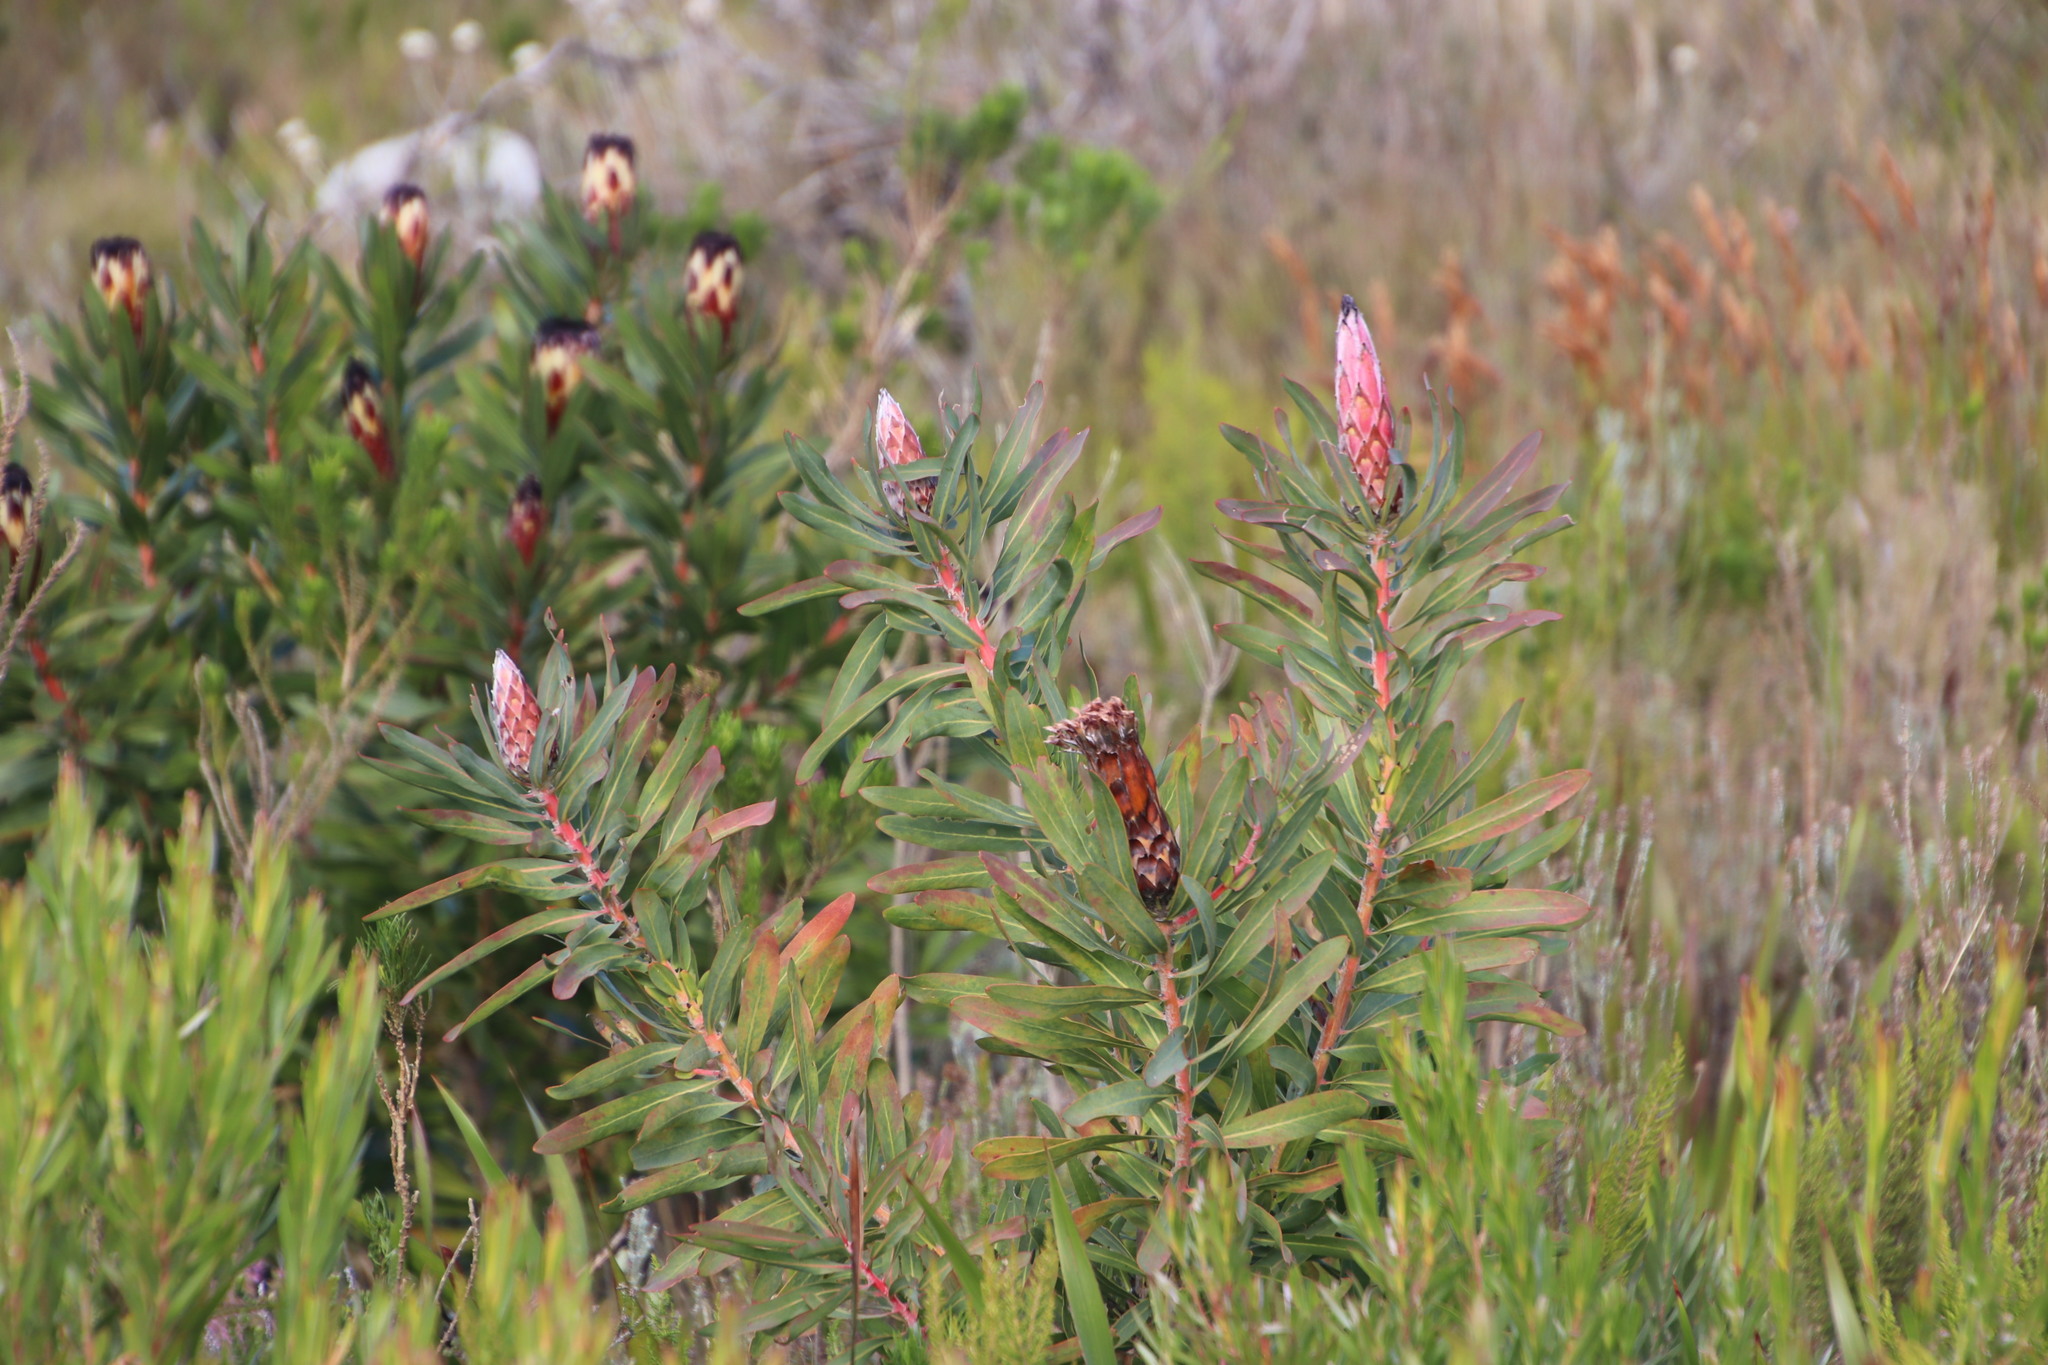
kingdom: Plantae
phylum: Tracheophyta
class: Magnoliopsida
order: Proteales
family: Proteaceae
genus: Protea
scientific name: Protea
